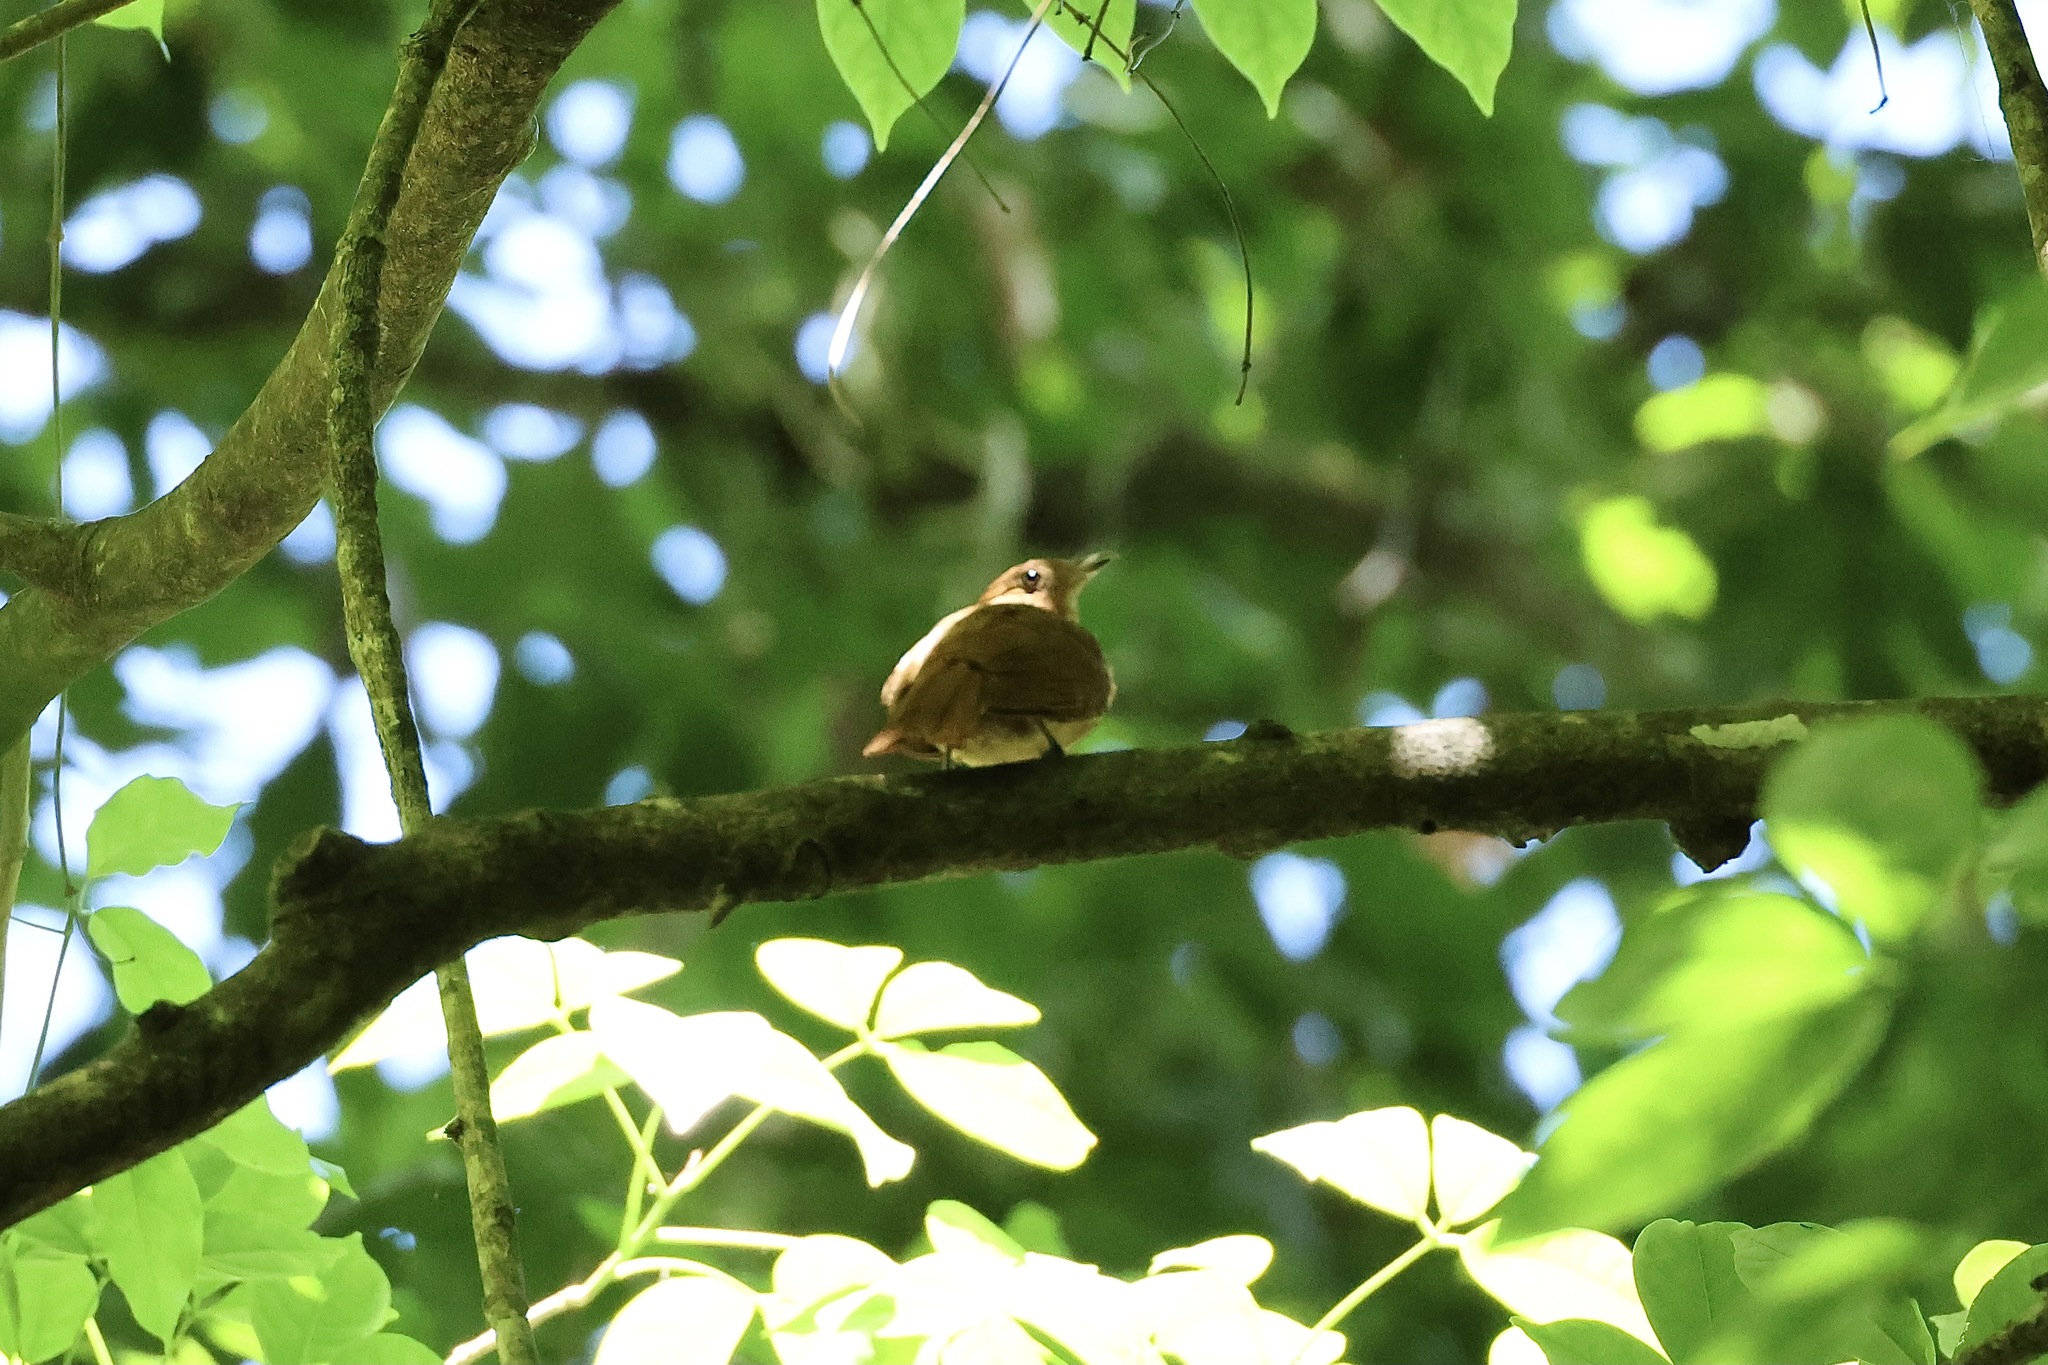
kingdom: Animalia
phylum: Chordata
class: Aves
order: Passeriformes
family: Cotingidae
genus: Lipaugus
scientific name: Lipaugus unirufus
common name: Rufous piha
